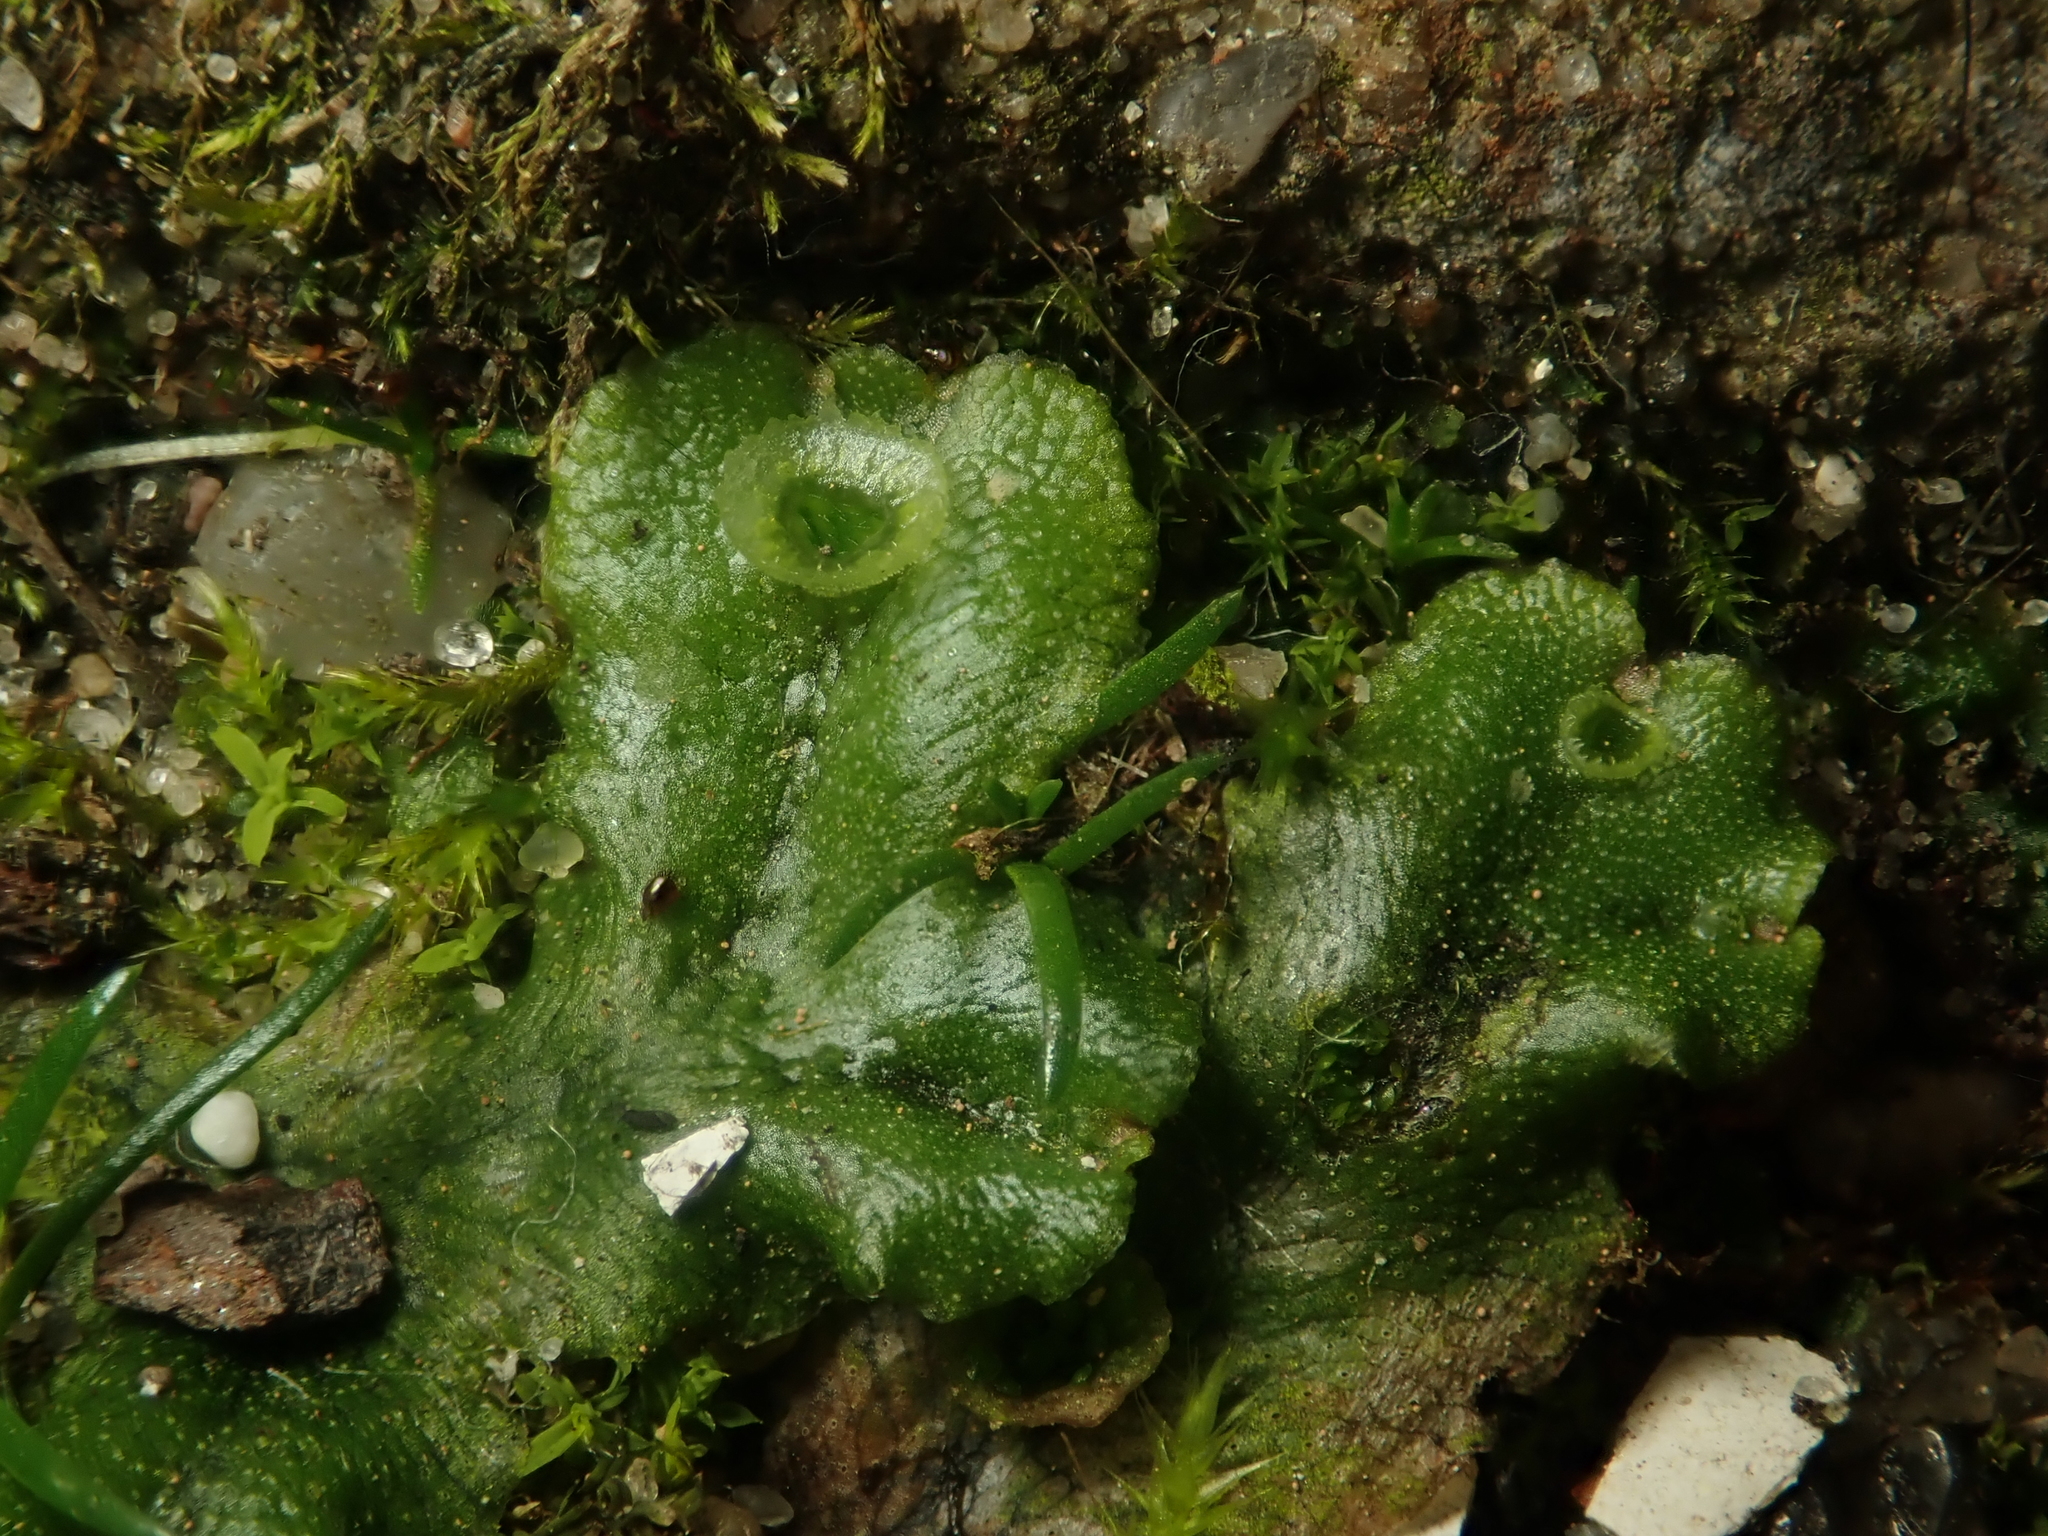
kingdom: Plantae
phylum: Marchantiophyta
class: Marchantiopsida
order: Marchantiales
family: Marchantiaceae
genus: Marchantia
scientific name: Marchantia polymorpha
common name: Common liverwort
